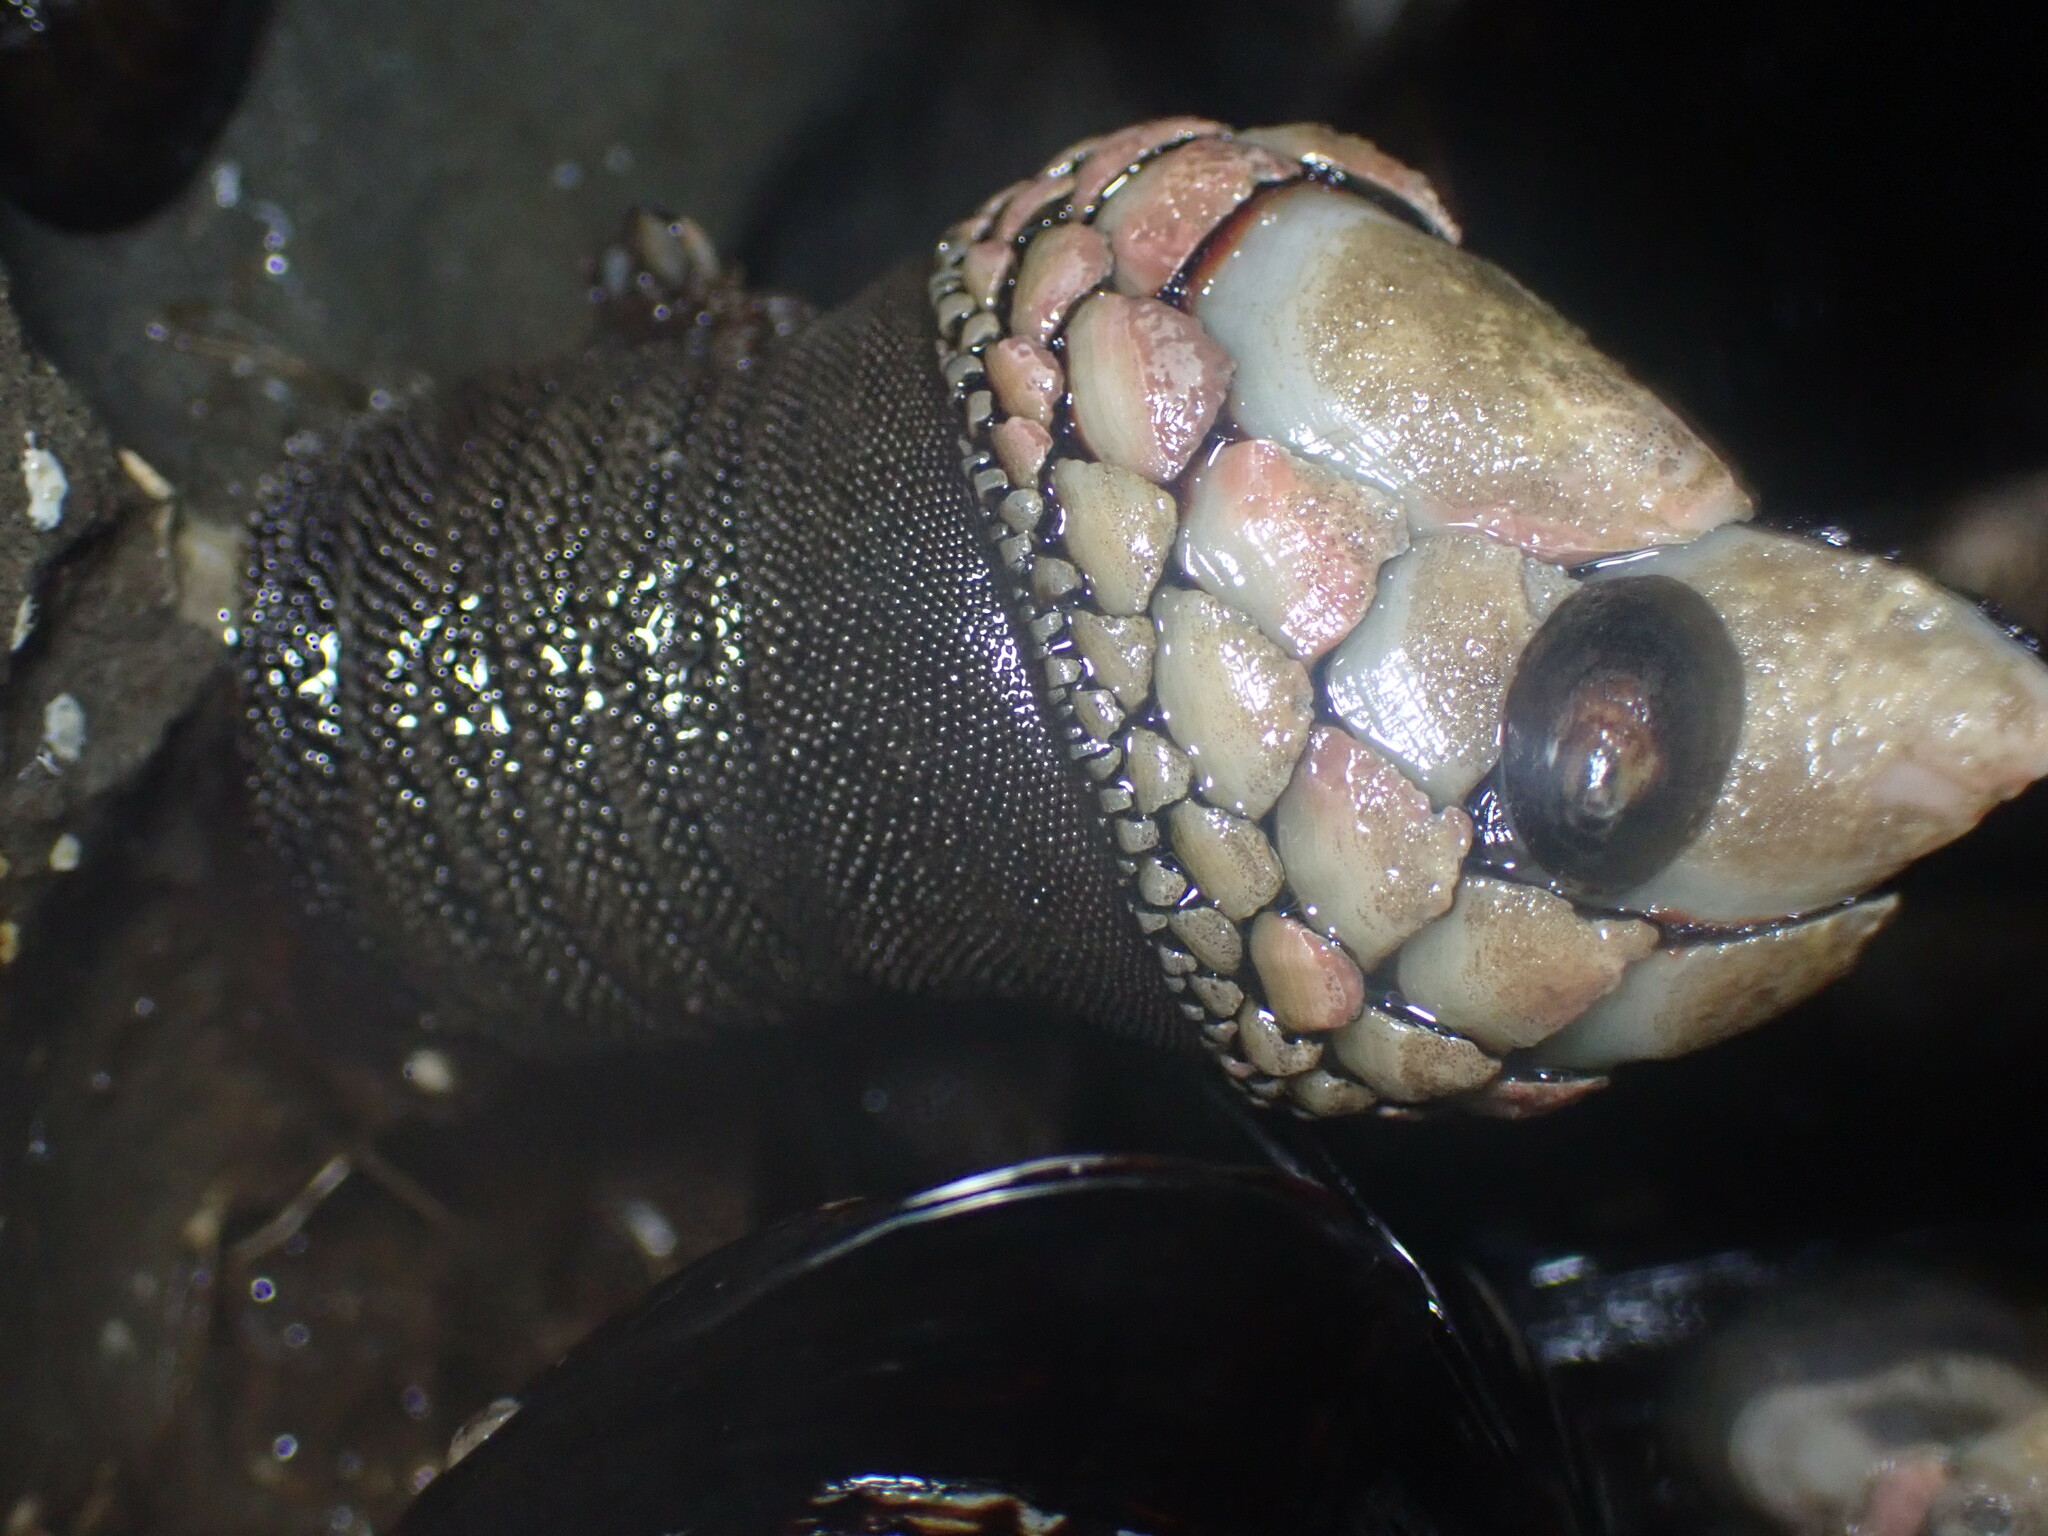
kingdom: Animalia
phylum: Arthropoda
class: Maxillopoda
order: Pedunculata
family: Pollicipedidae
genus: Pollicipes
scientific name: Pollicipes polymerus
